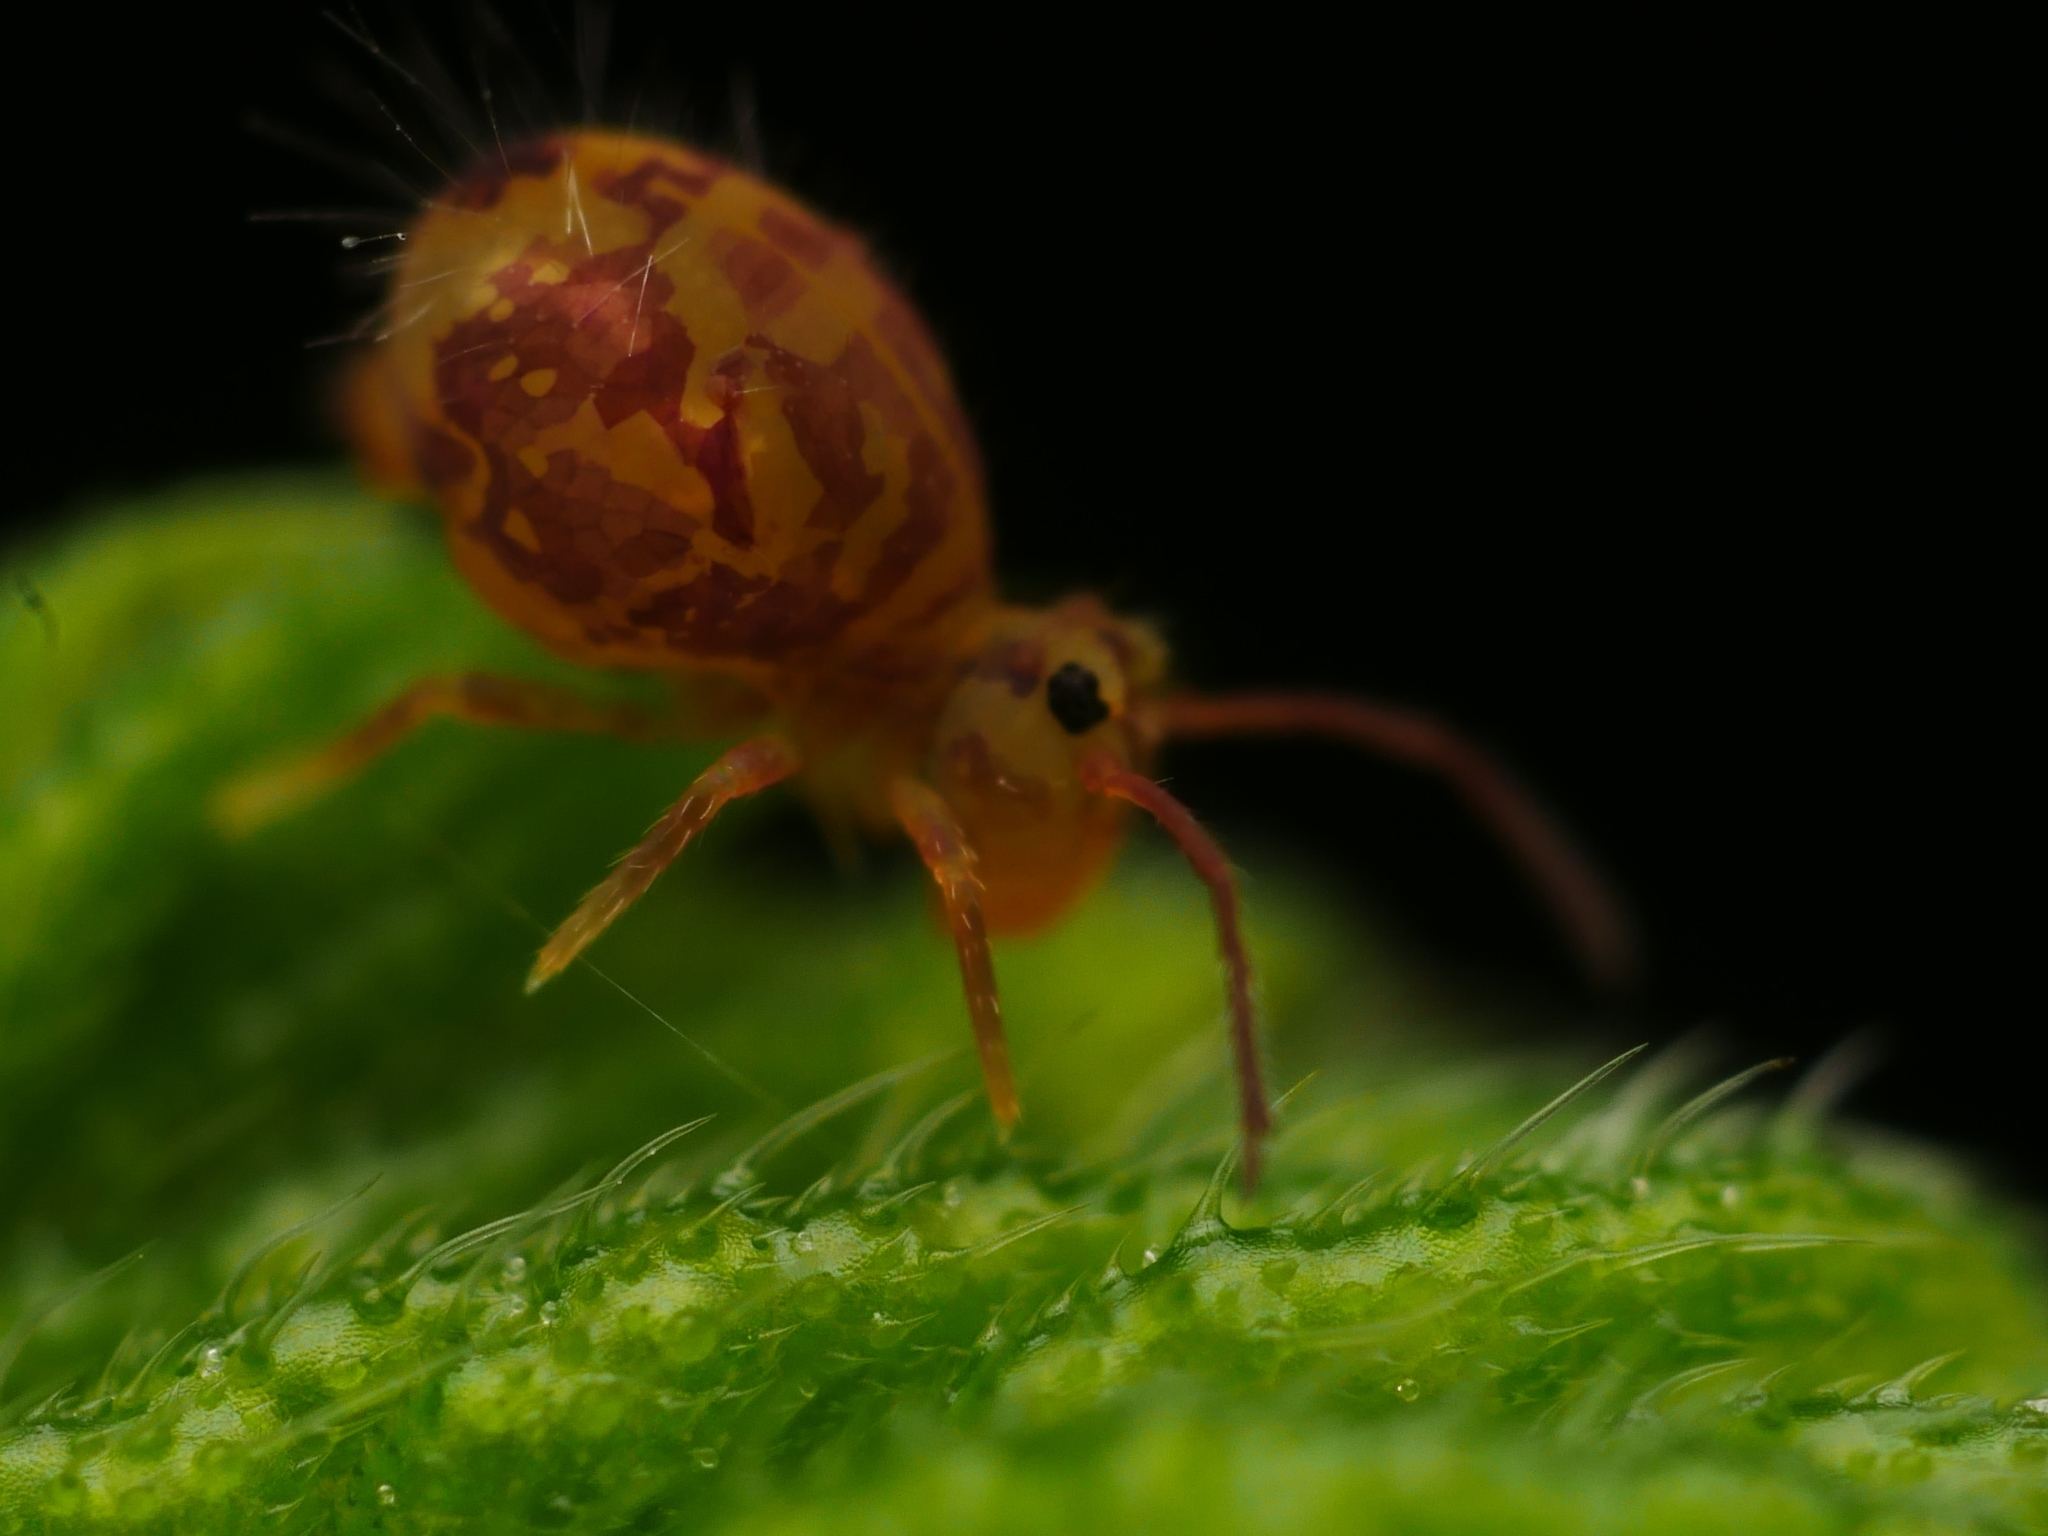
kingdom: Animalia
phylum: Arthropoda
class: Collembola
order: Symphypleona
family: Dicyrtomidae
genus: Dicyrtomina
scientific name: Dicyrtomina ornata
